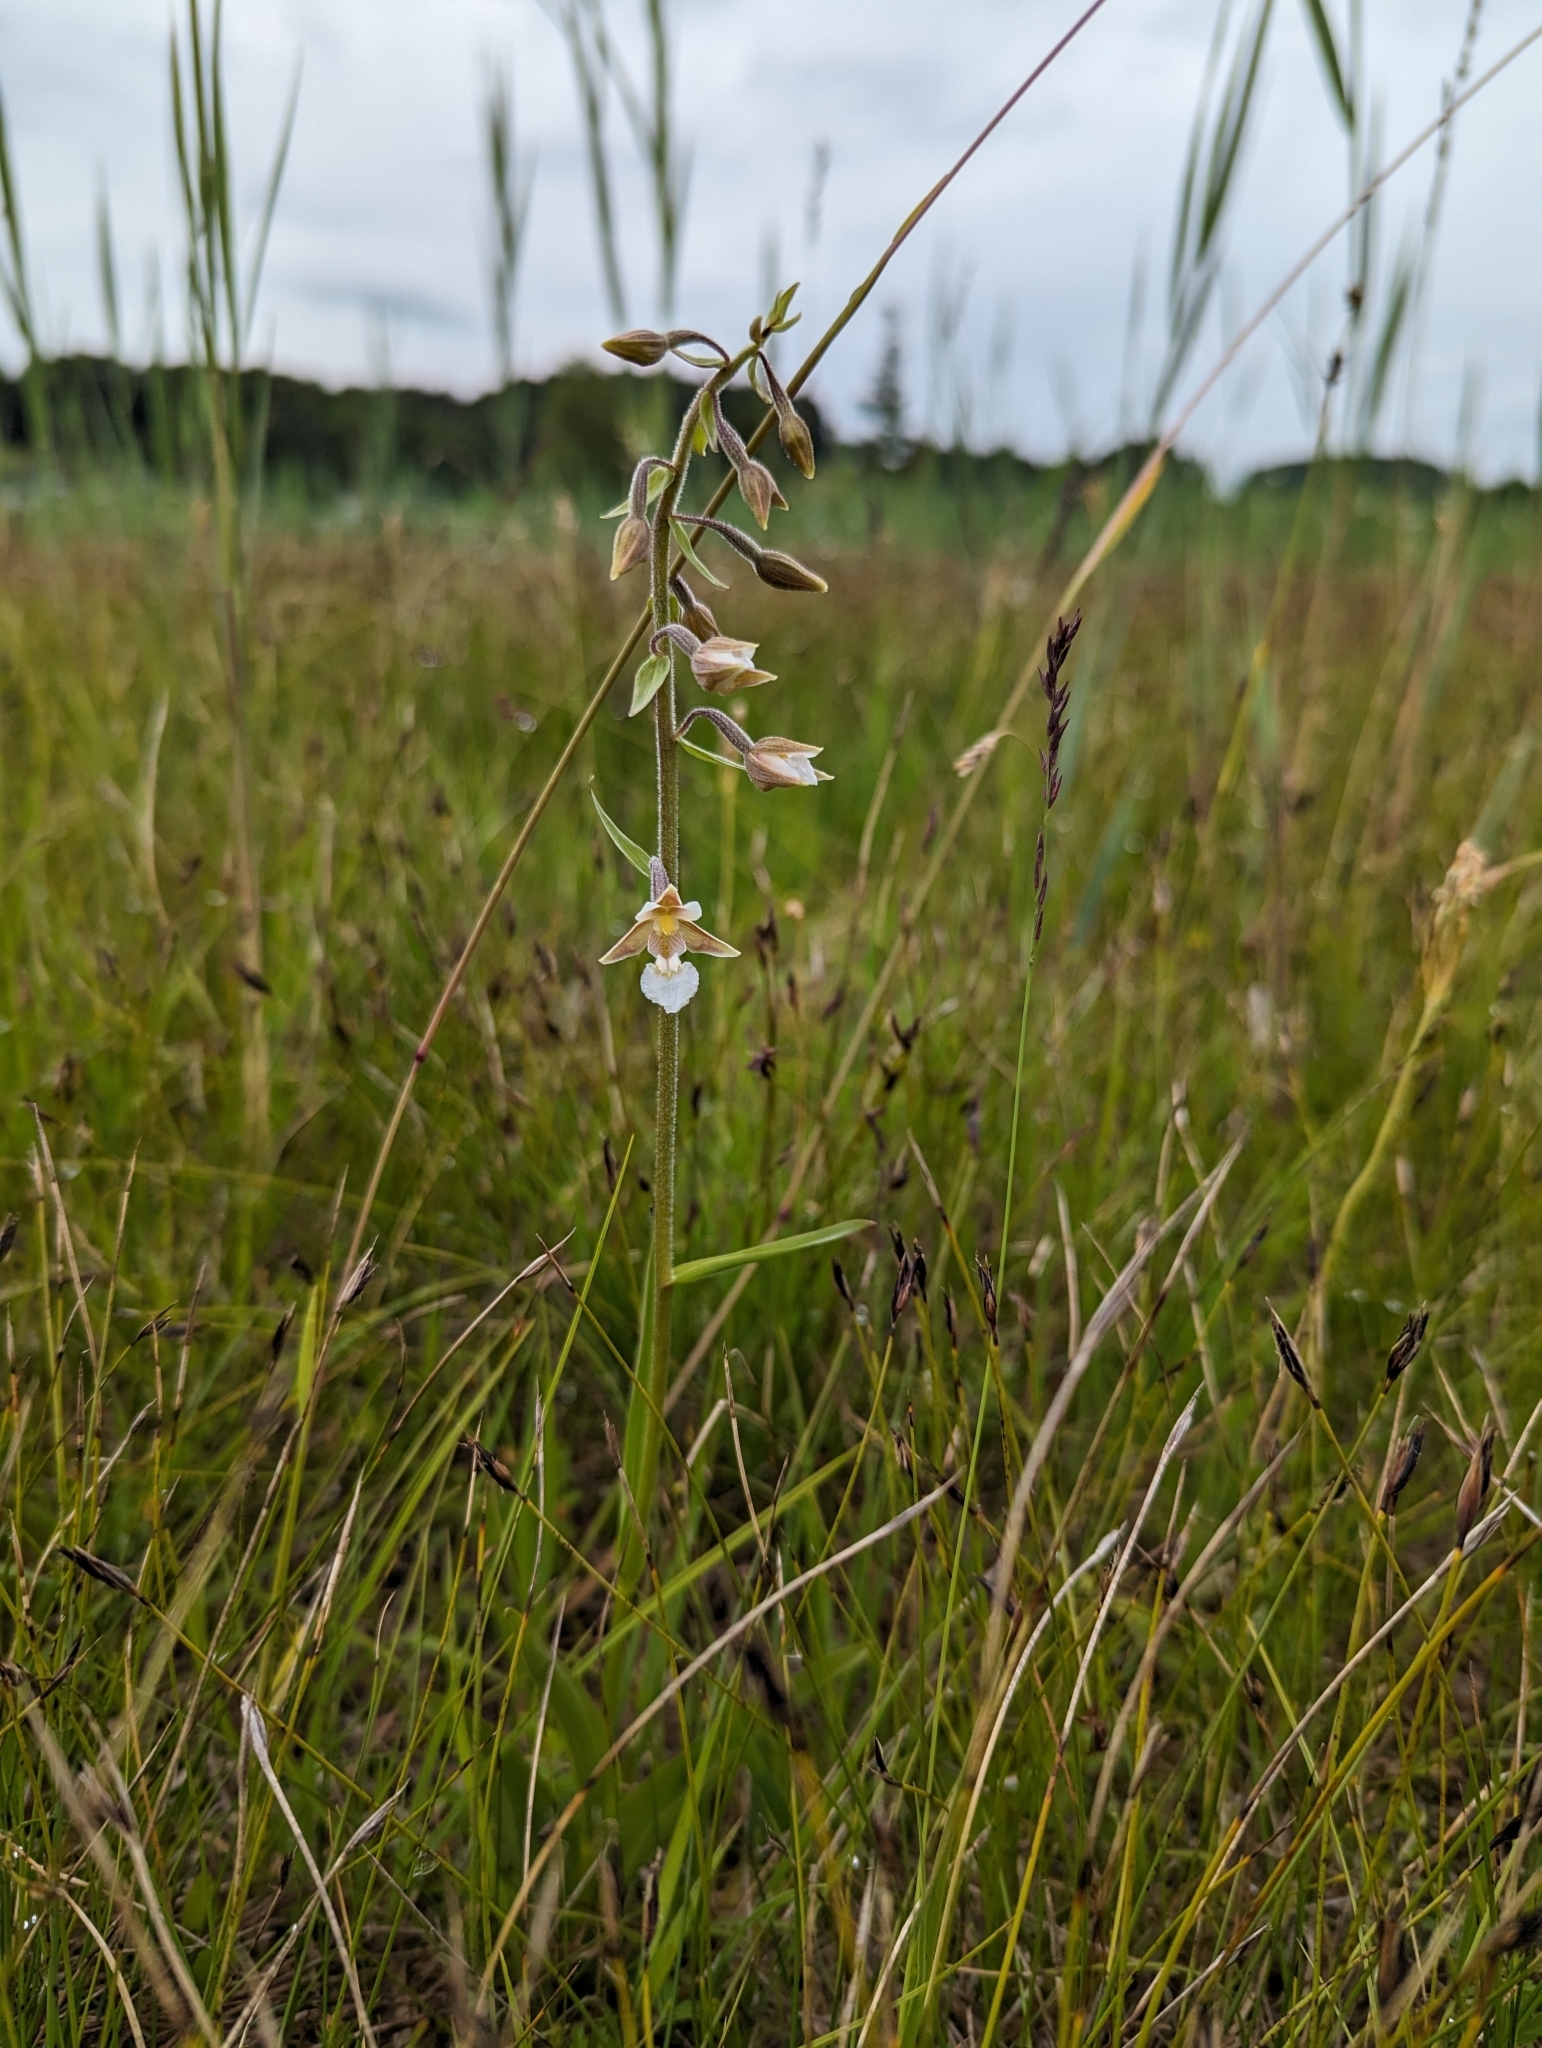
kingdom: Plantae
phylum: Tracheophyta
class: Liliopsida
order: Asparagales
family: Orchidaceae
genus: Epipactis
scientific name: Epipactis palustris
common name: Marsh helleborine
